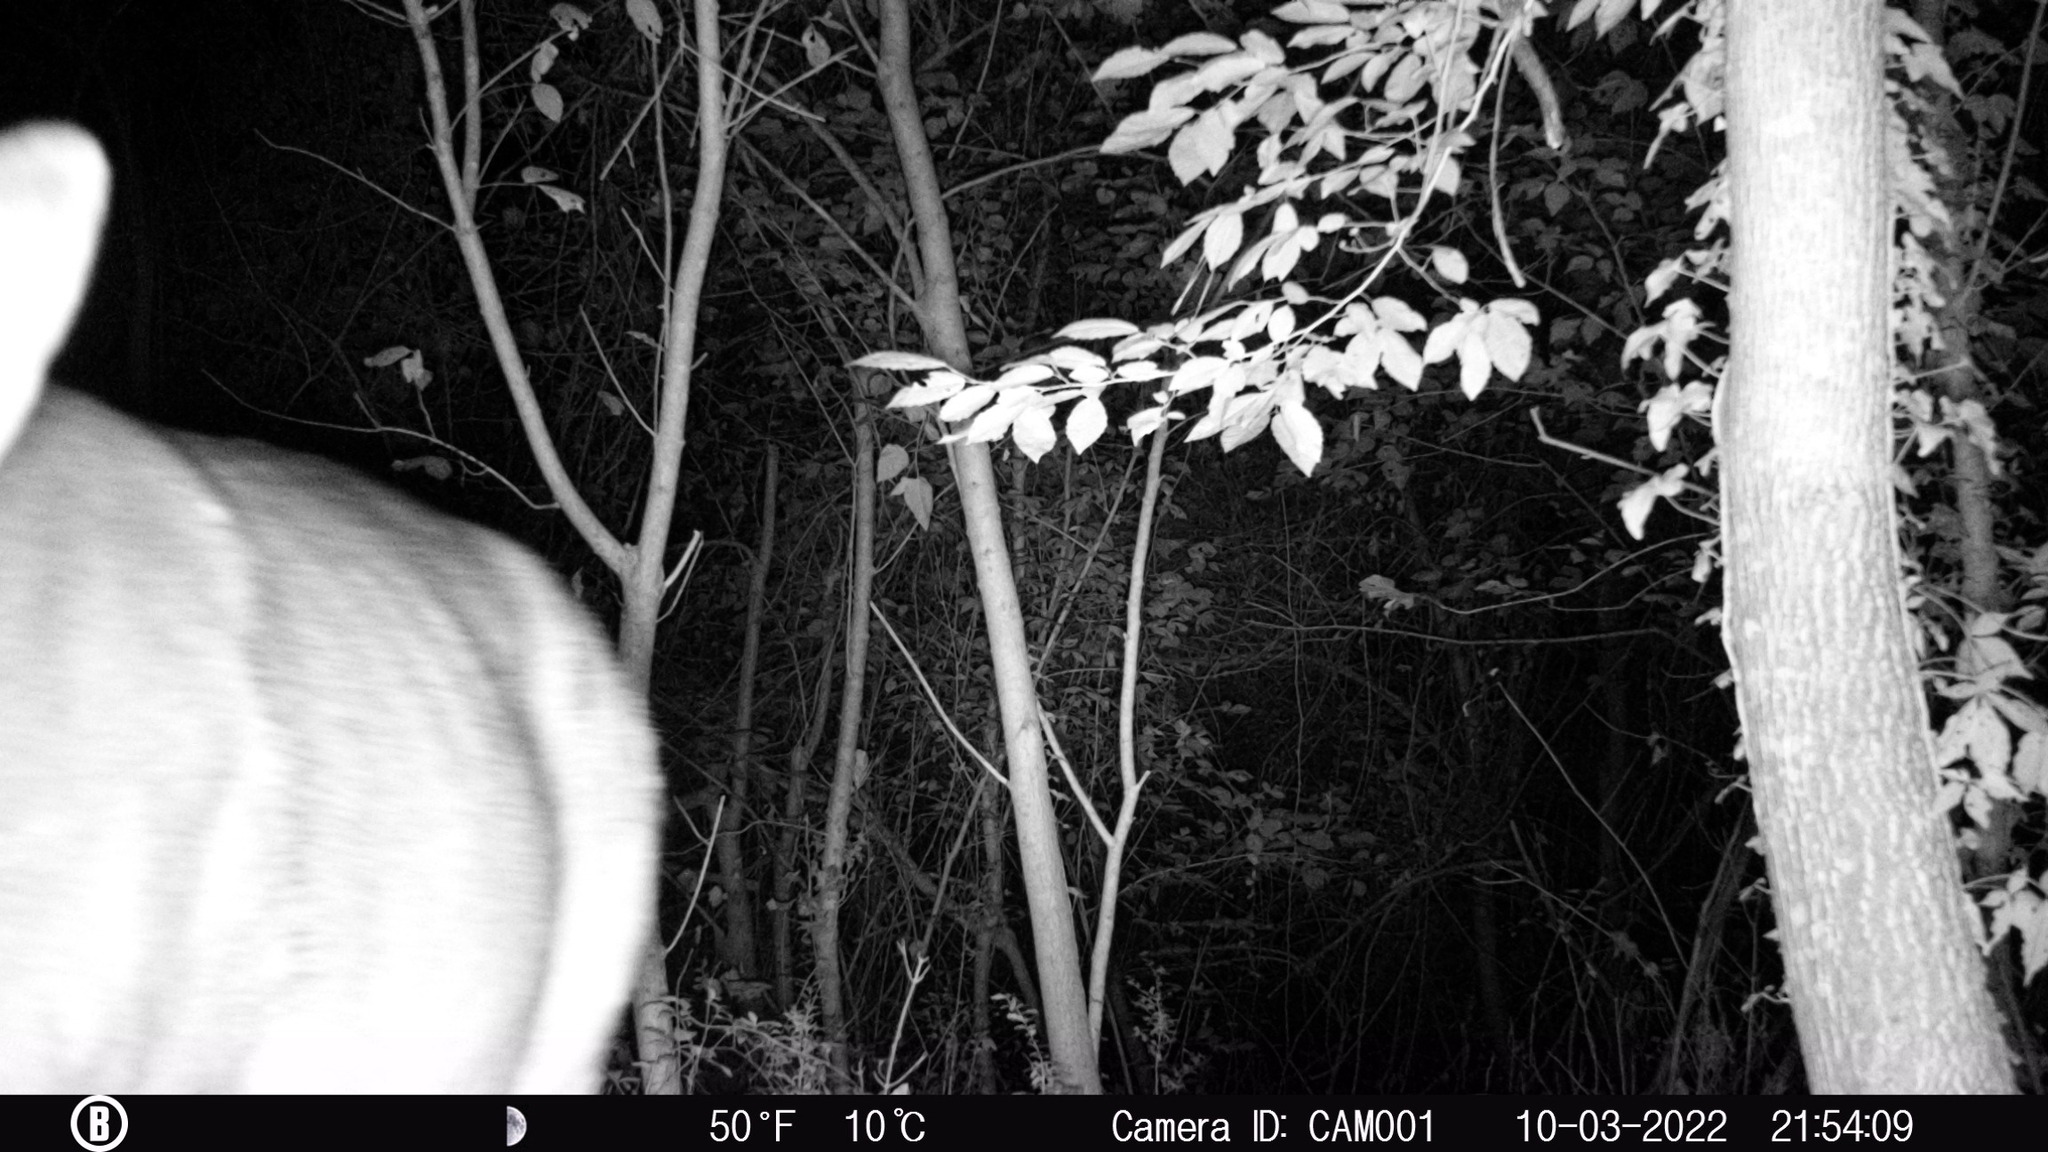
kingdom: Animalia
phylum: Chordata
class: Mammalia
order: Artiodactyla
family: Cervidae
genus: Odocoileus
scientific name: Odocoileus virginianus
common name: White-tailed deer
